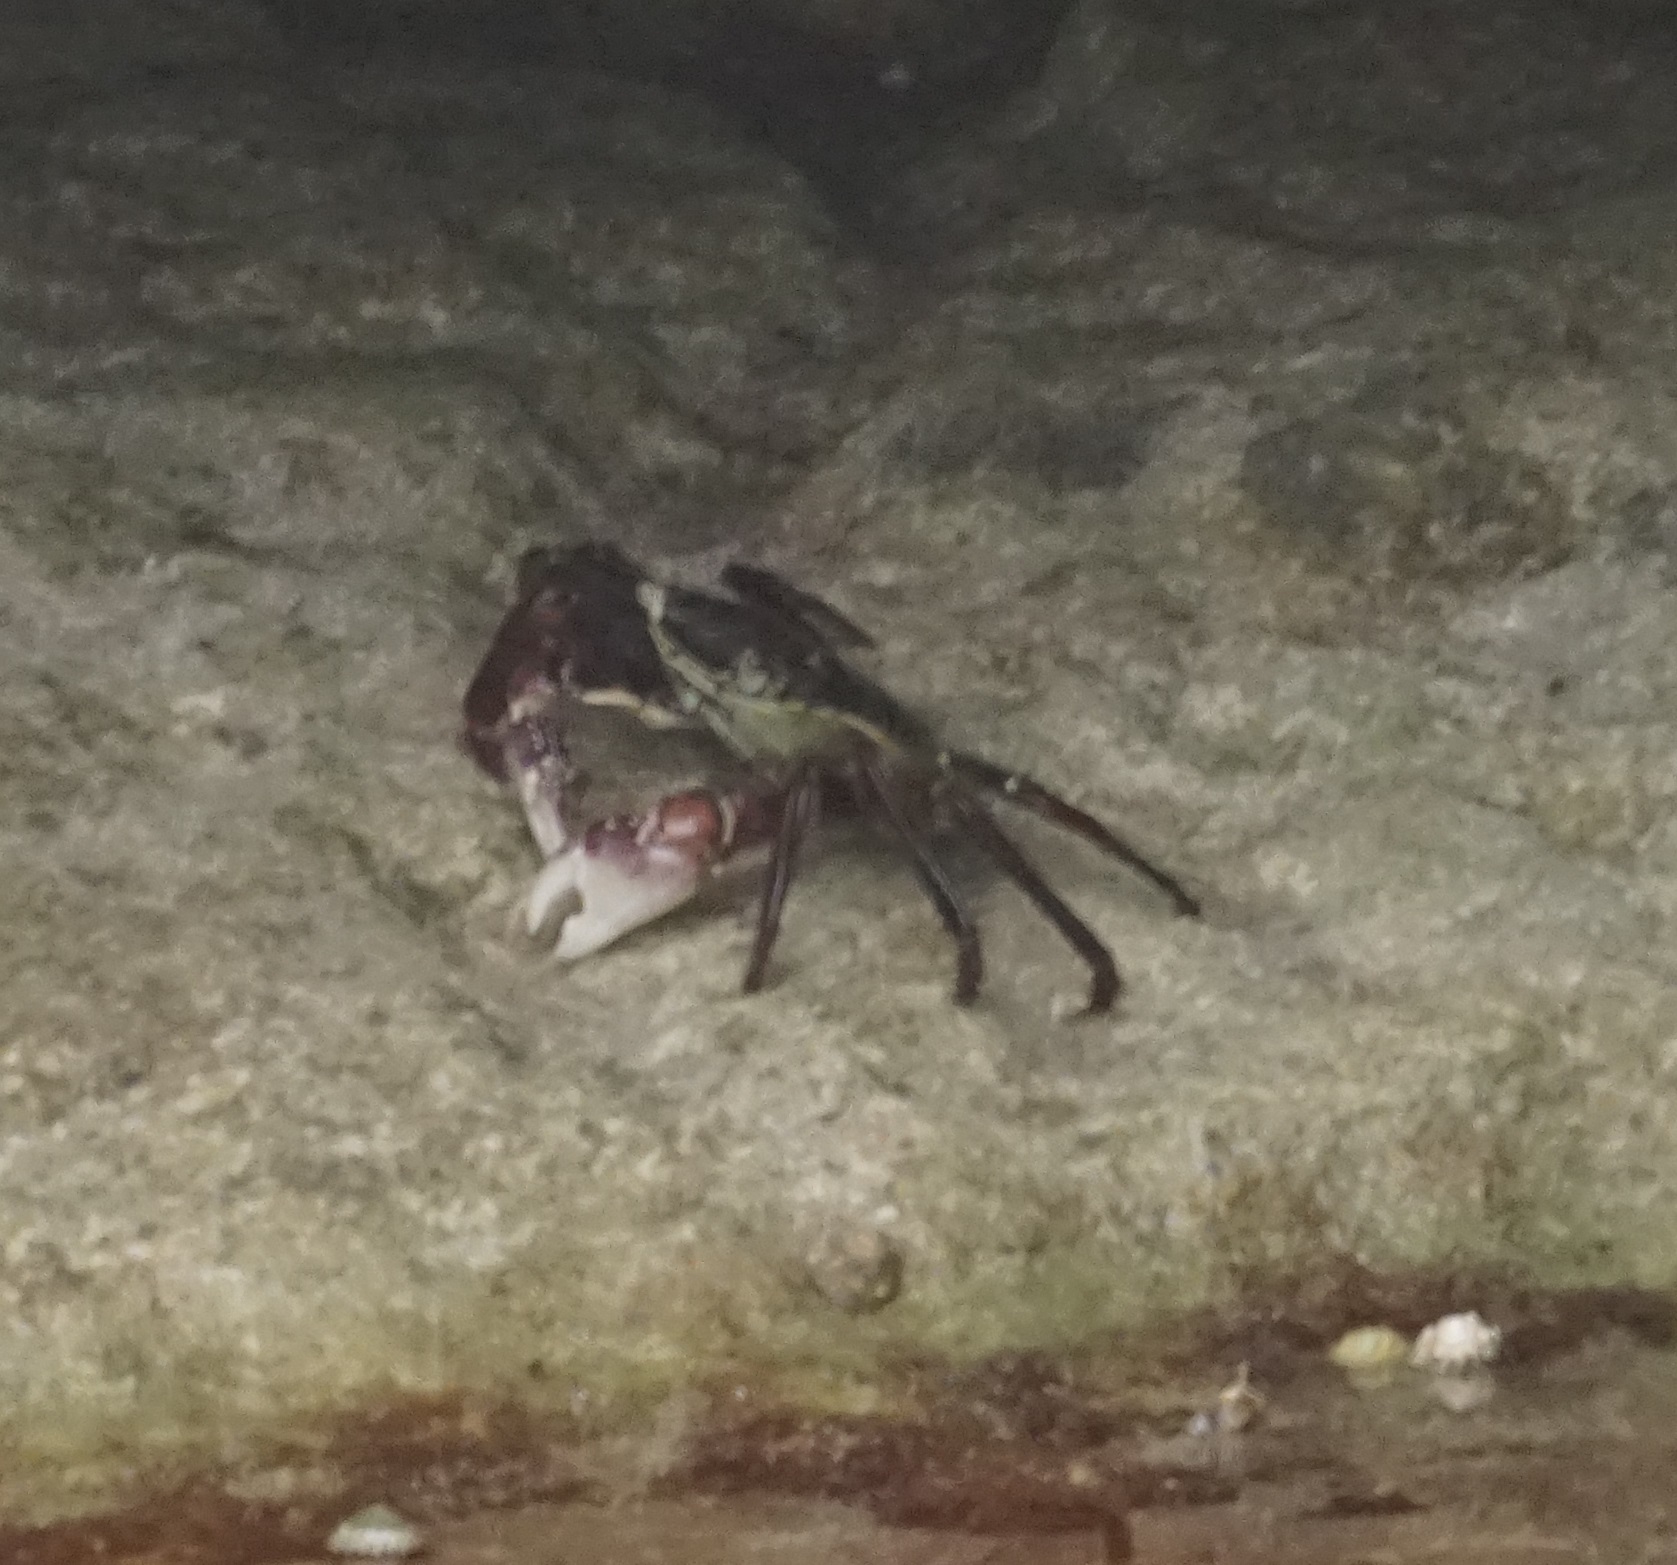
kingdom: Animalia
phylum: Arthropoda
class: Malacostraca
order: Decapoda
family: Grapsidae
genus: Leptograpsus
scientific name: Leptograpsus variegatus
